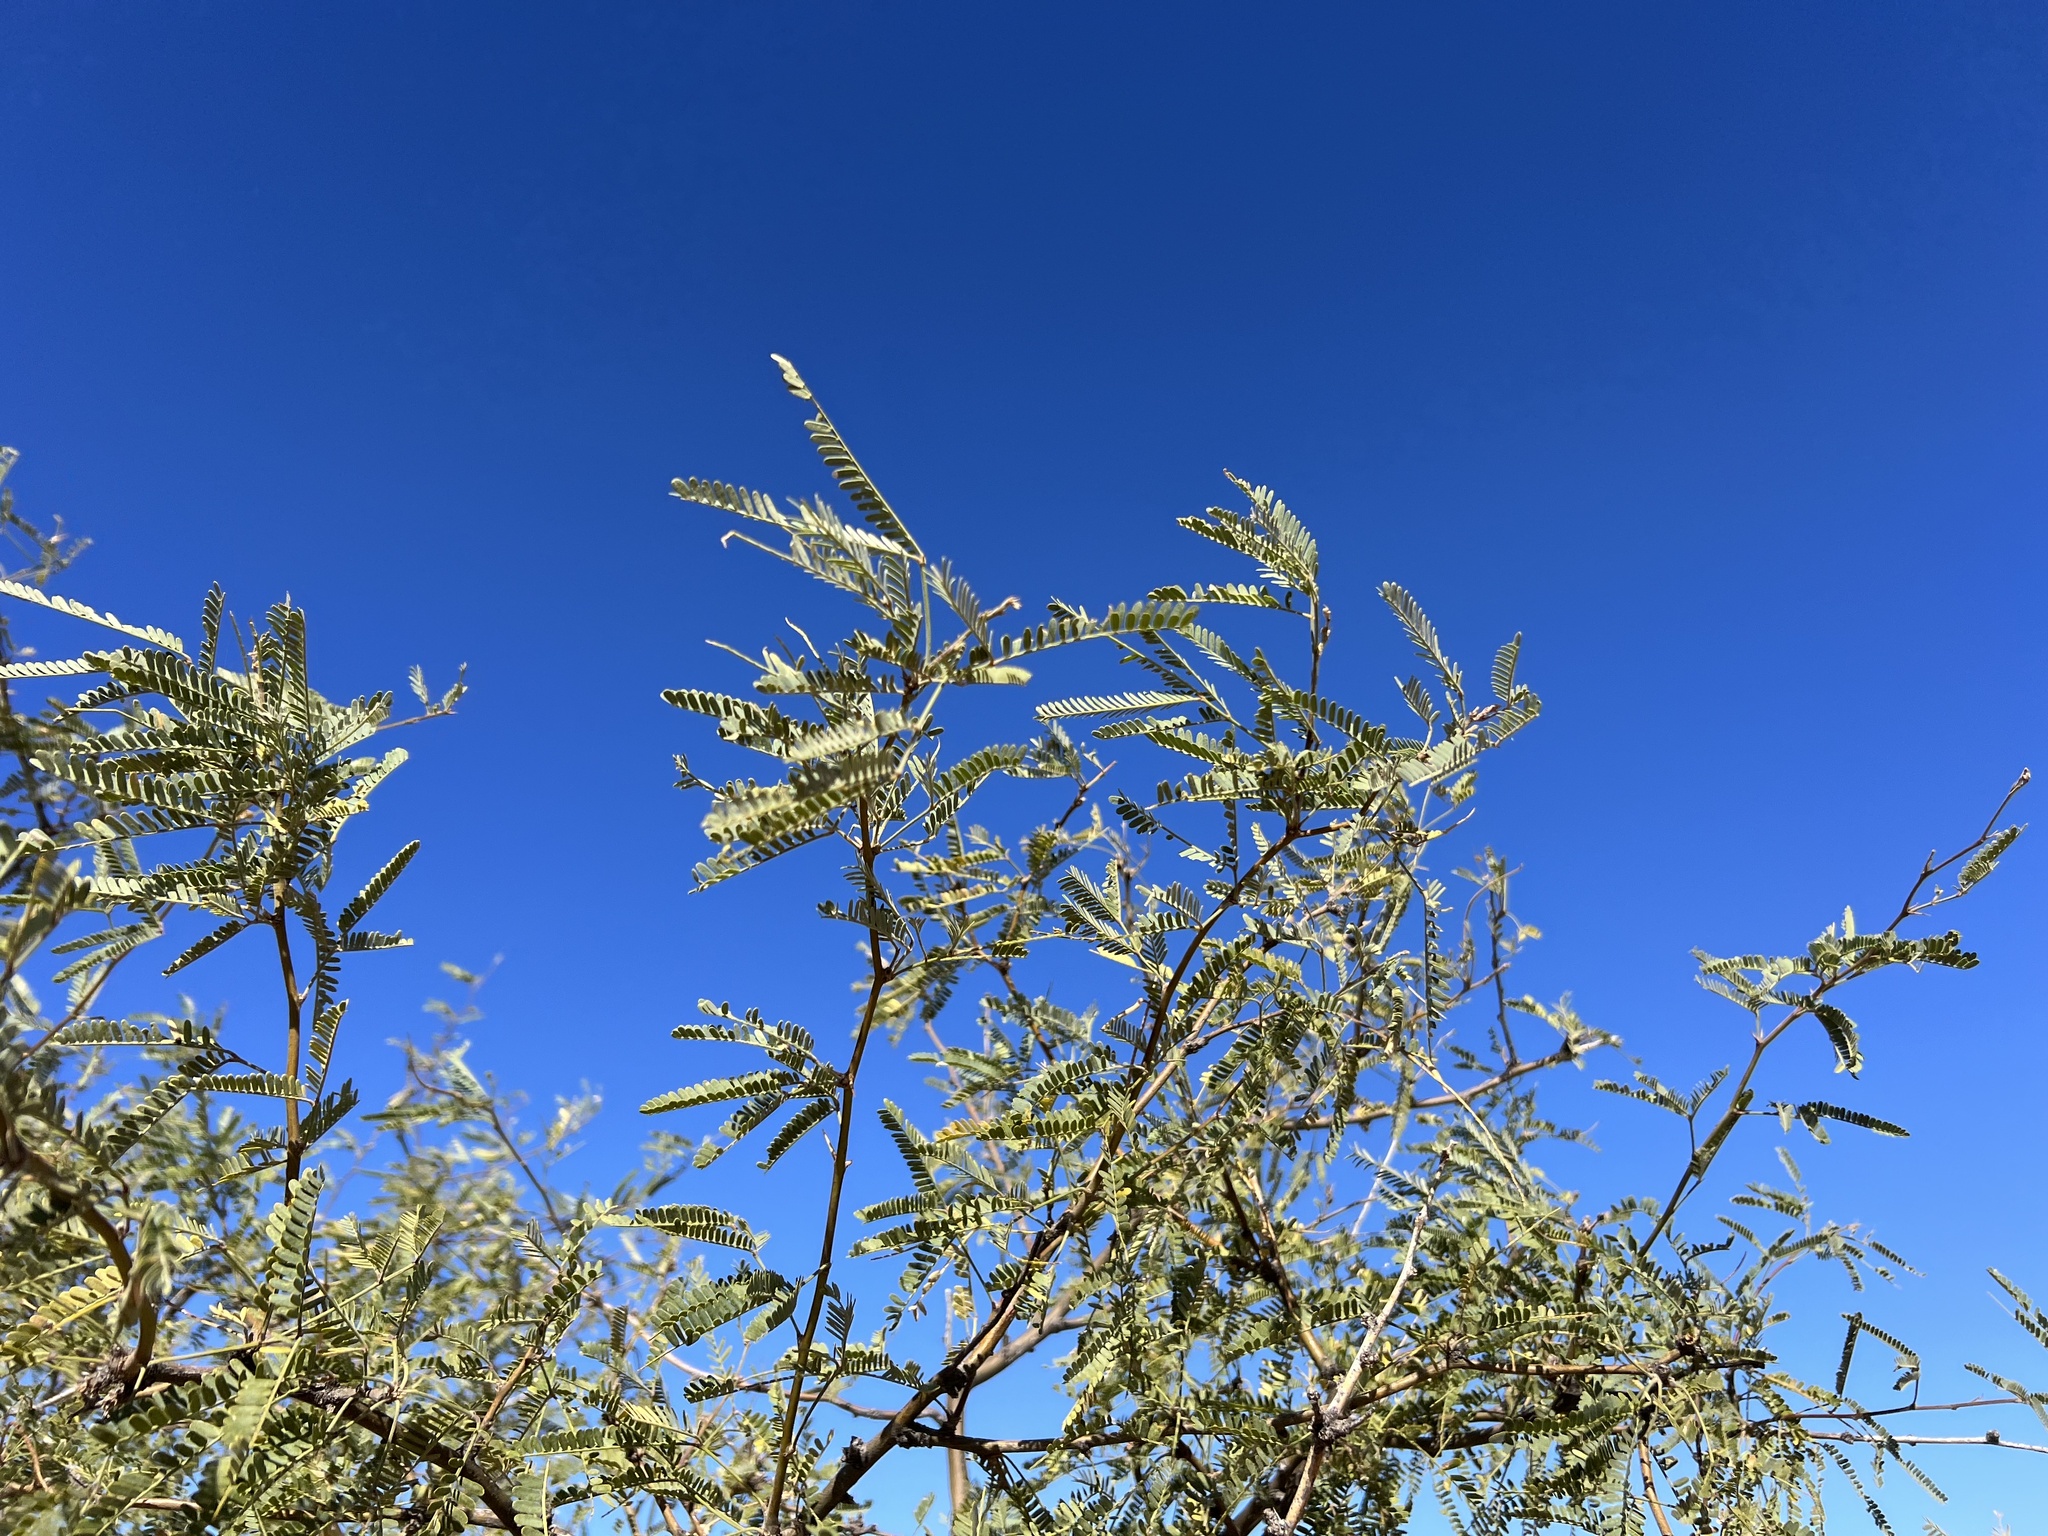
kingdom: Plantae
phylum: Tracheophyta
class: Magnoliopsida
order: Fabales
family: Fabaceae
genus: Prosopis
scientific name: Prosopis velutina
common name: Velvet mesquite
